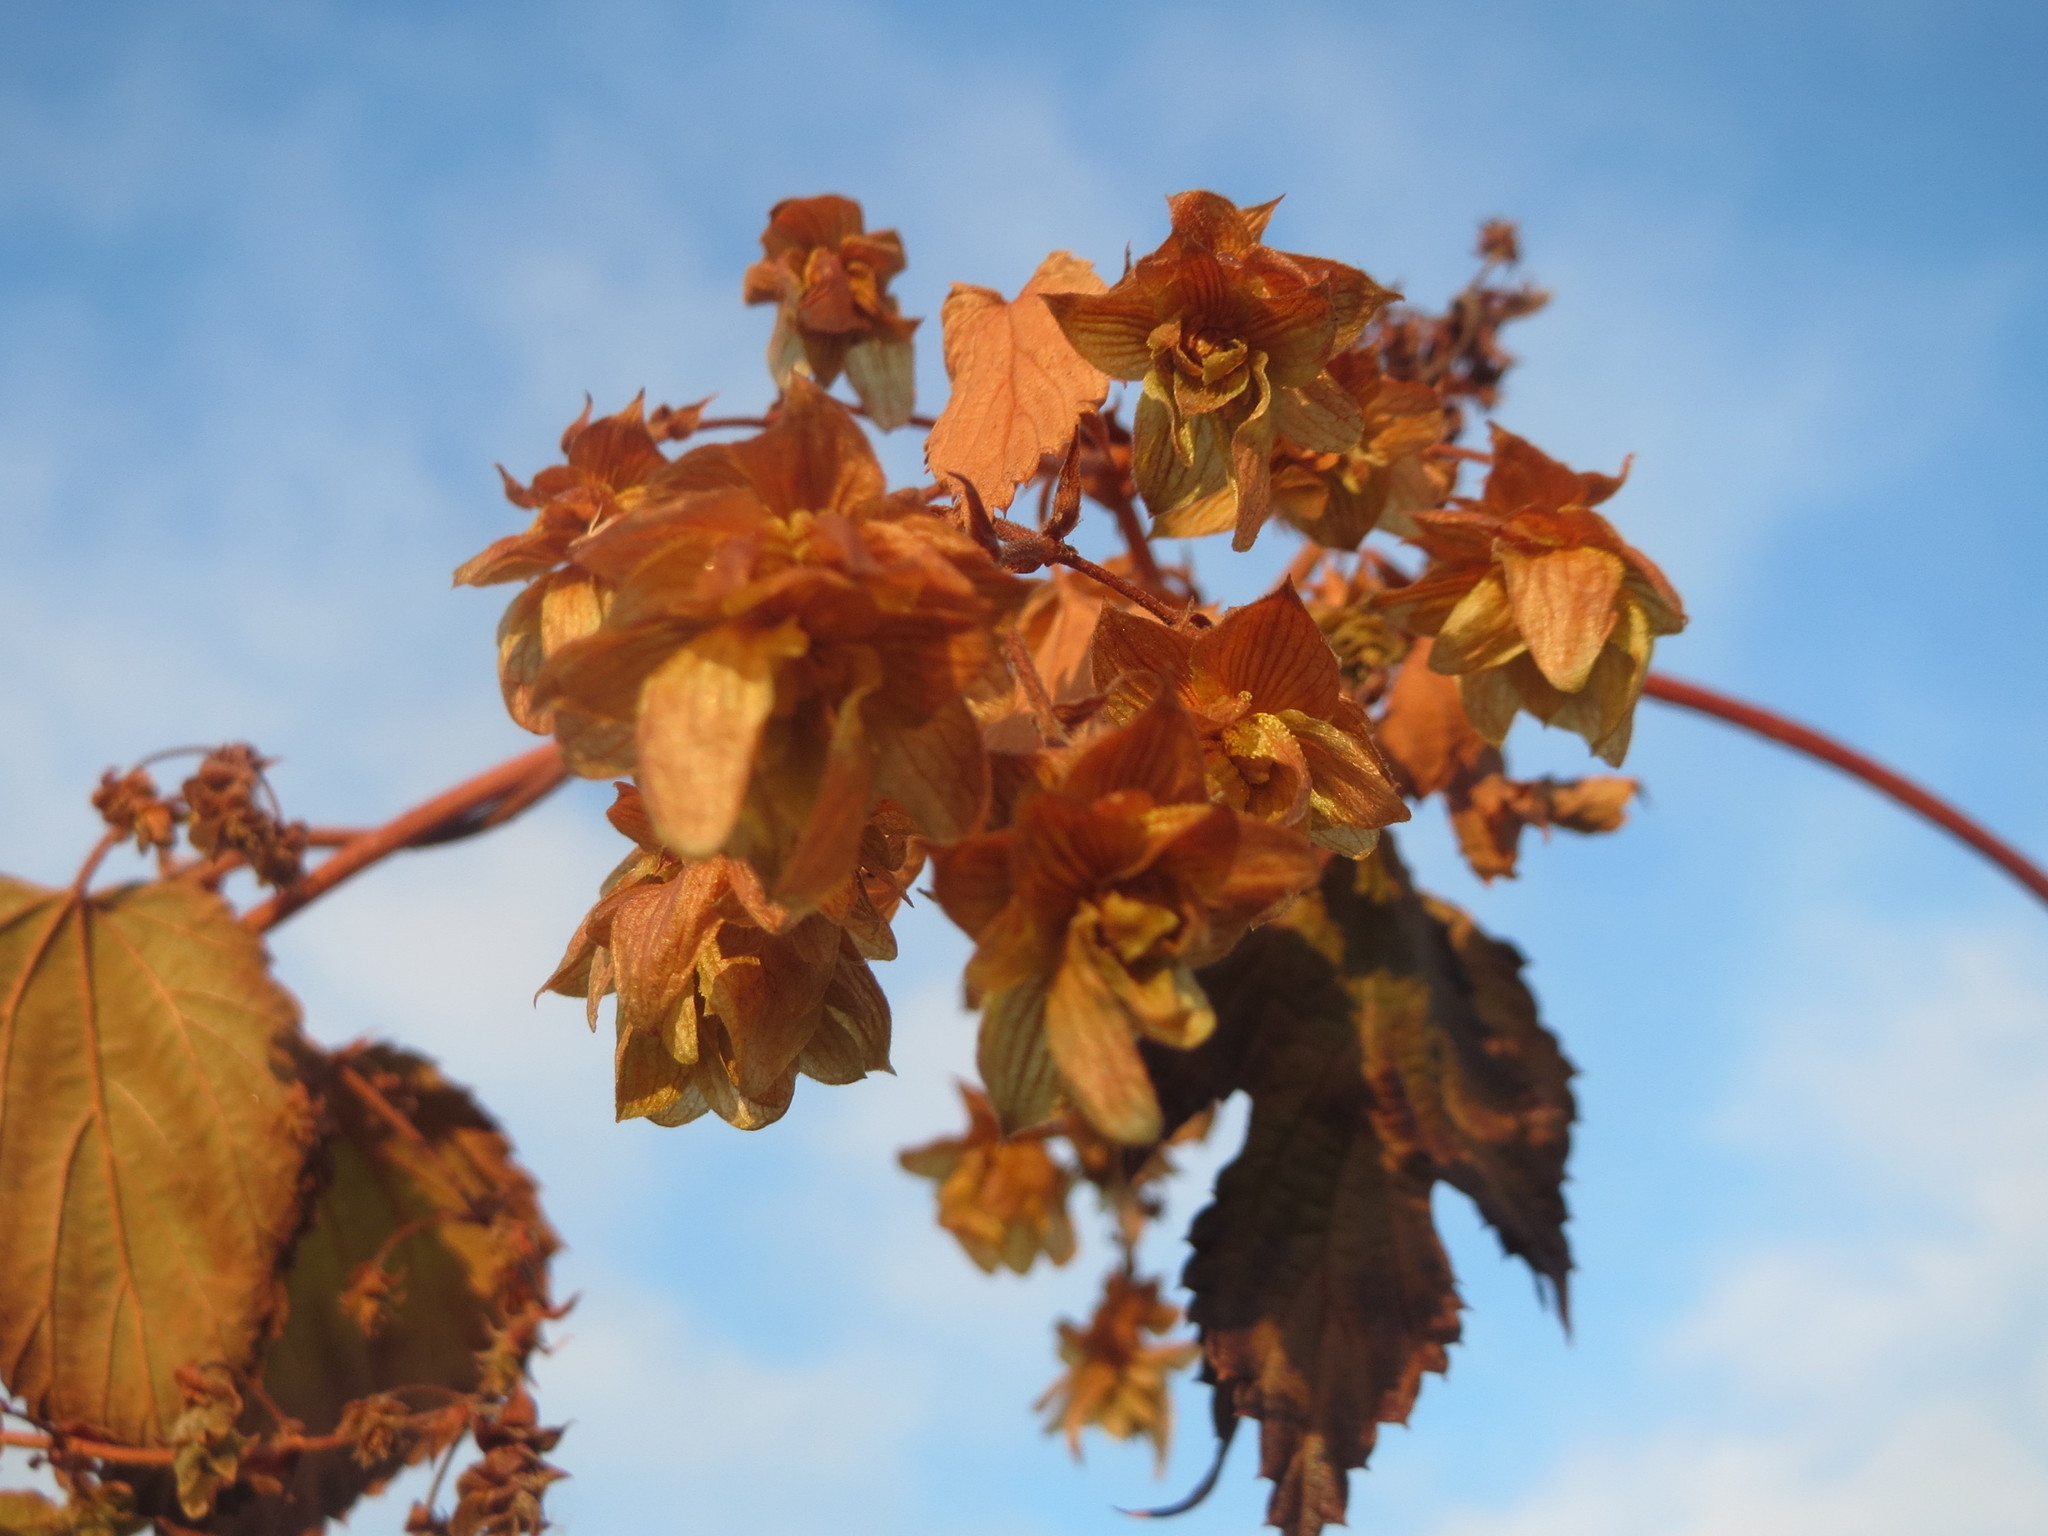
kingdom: Plantae
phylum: Tracheophyta
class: Magnoliopsida
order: Rosales
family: Cannabaceae
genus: Humulus
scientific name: Humulus lupulus
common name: Hop
